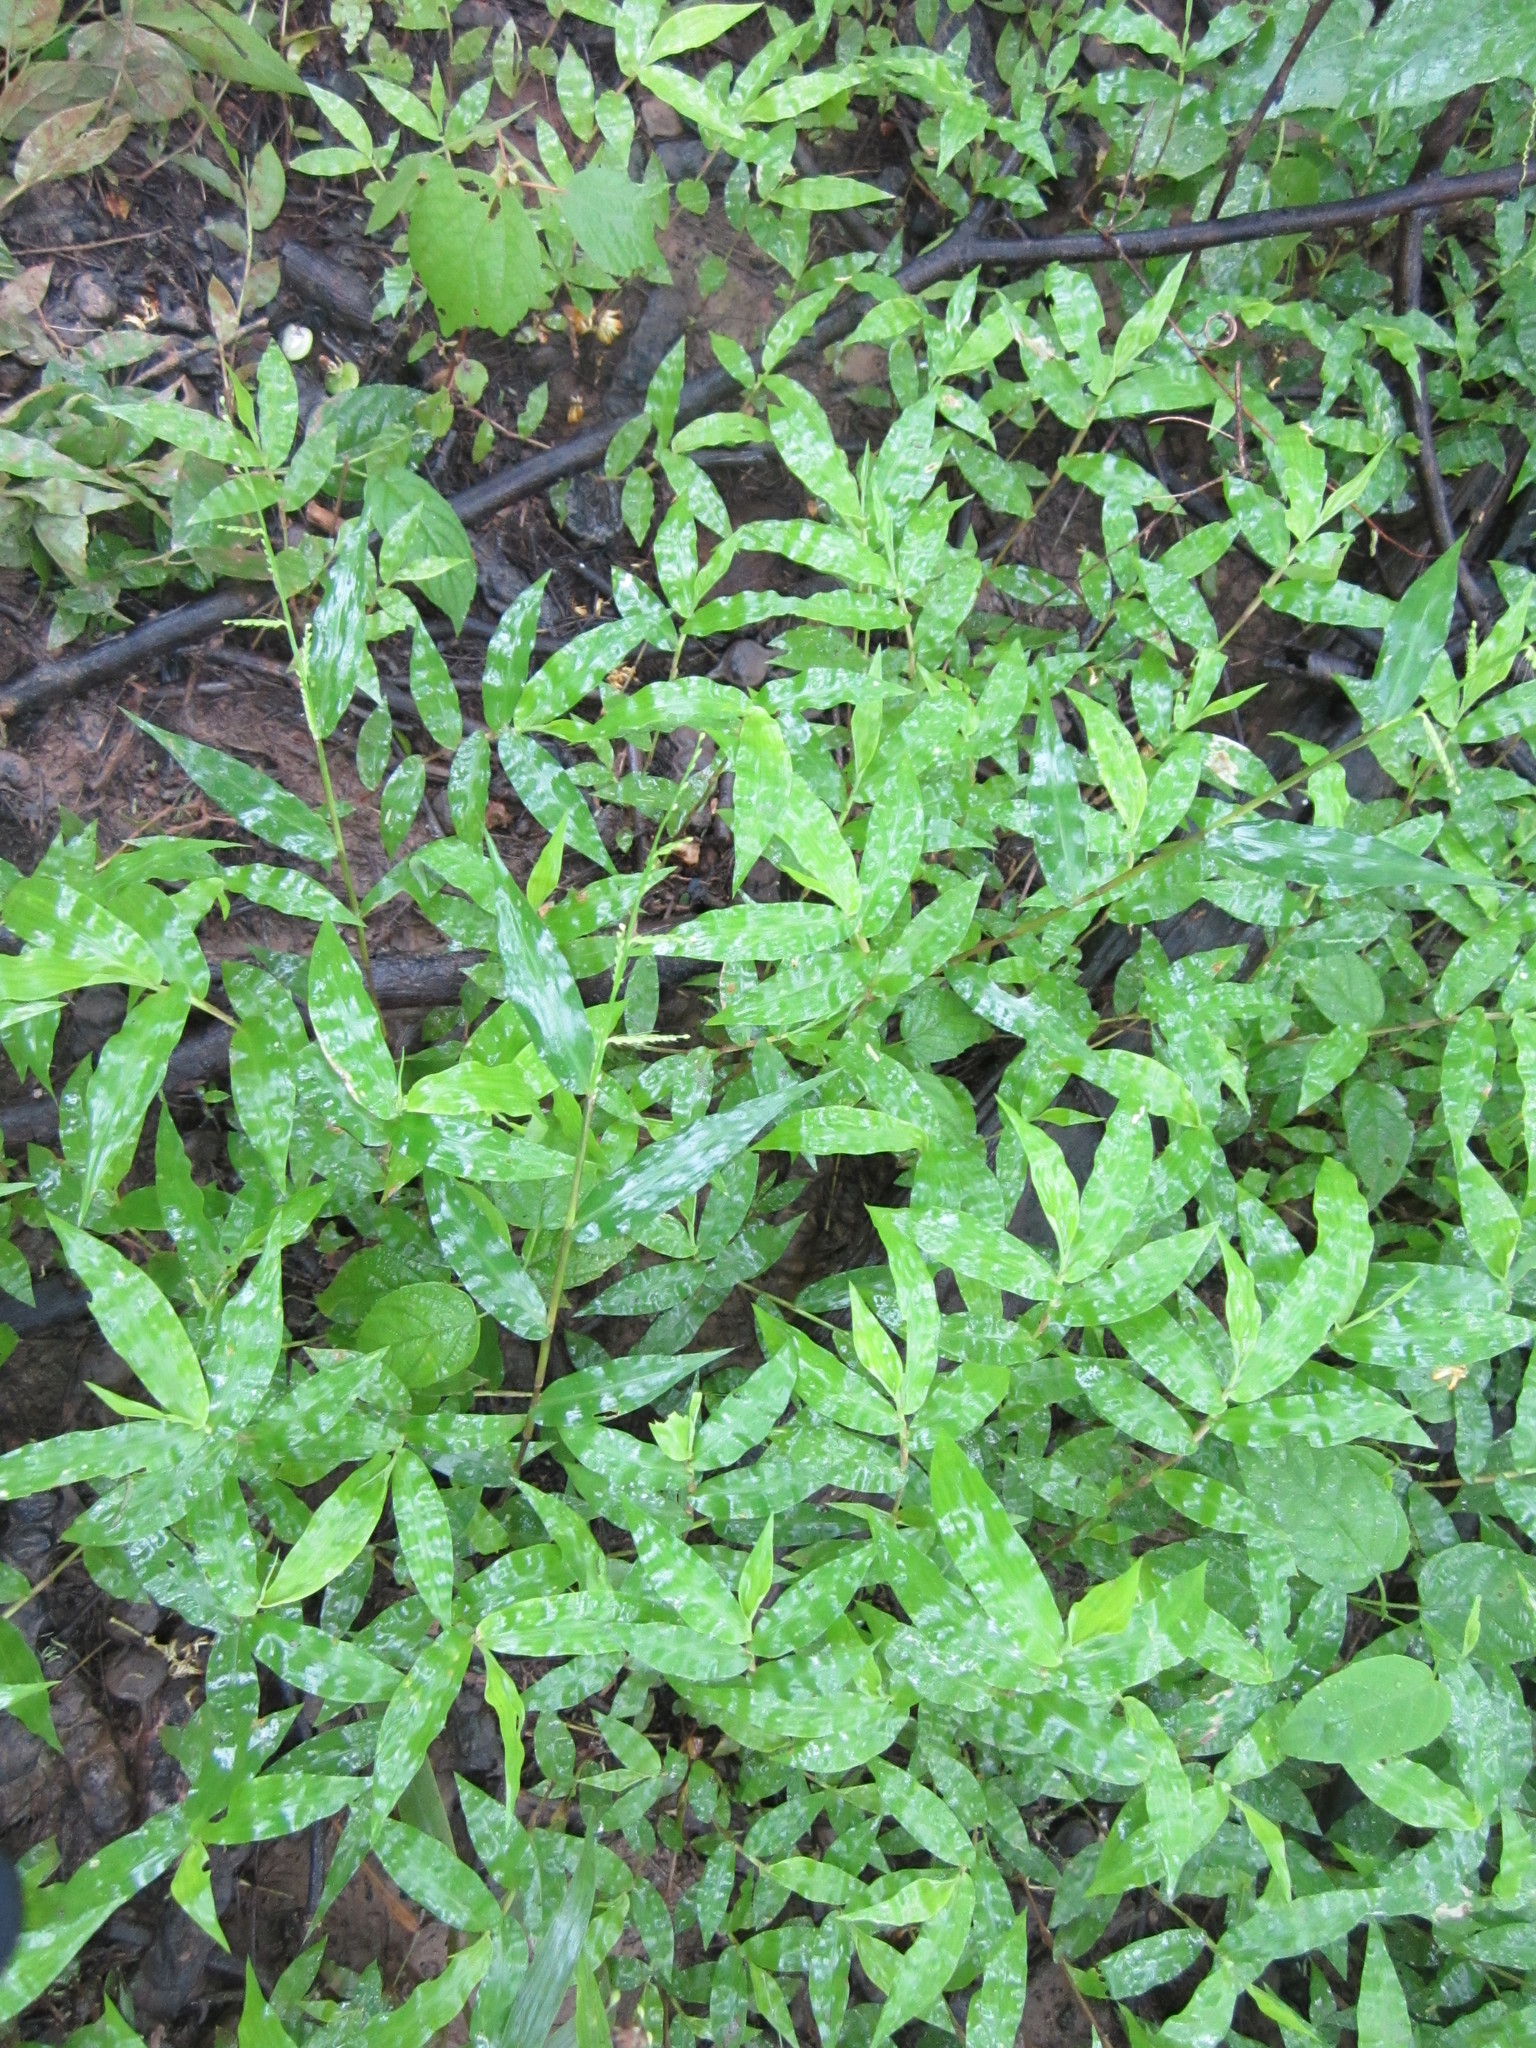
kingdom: Plantae
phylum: Tracheophyta
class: Liliopsida
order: Poales
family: Poaceae
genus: Cyphochlaena
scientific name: Cyphochlaena madagascariensis
